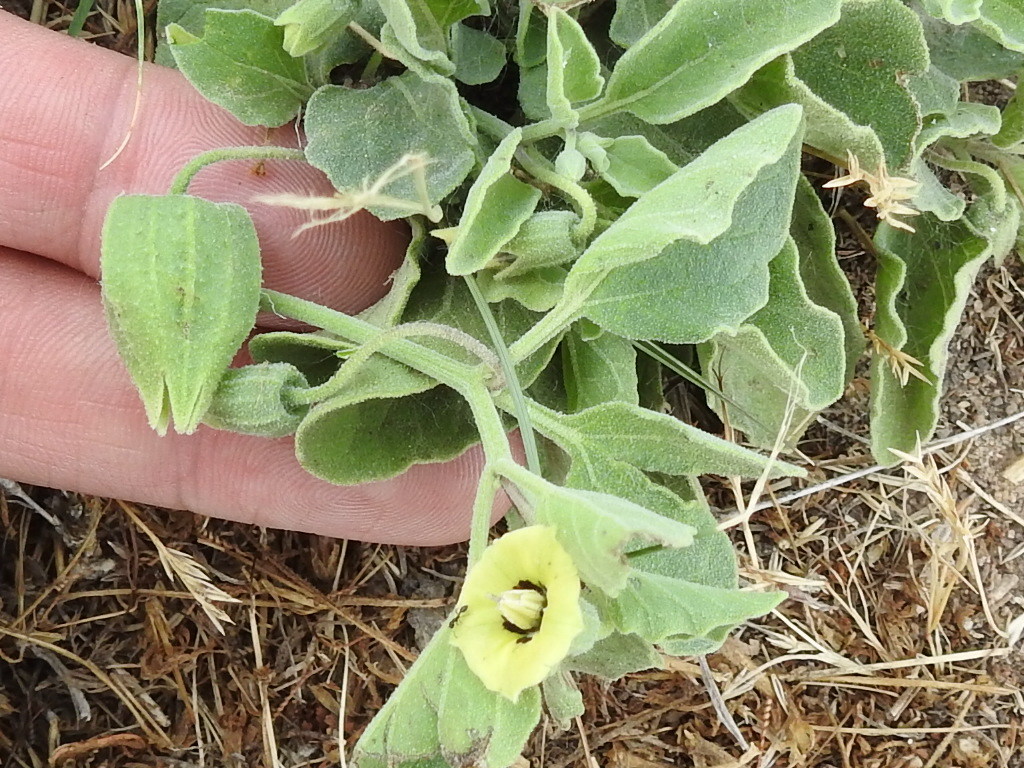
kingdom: Plantae
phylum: Tracheophyta
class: Magnoliopsida
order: Solanales
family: Solanaceae
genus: Physalis
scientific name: Physalis cinerascens
